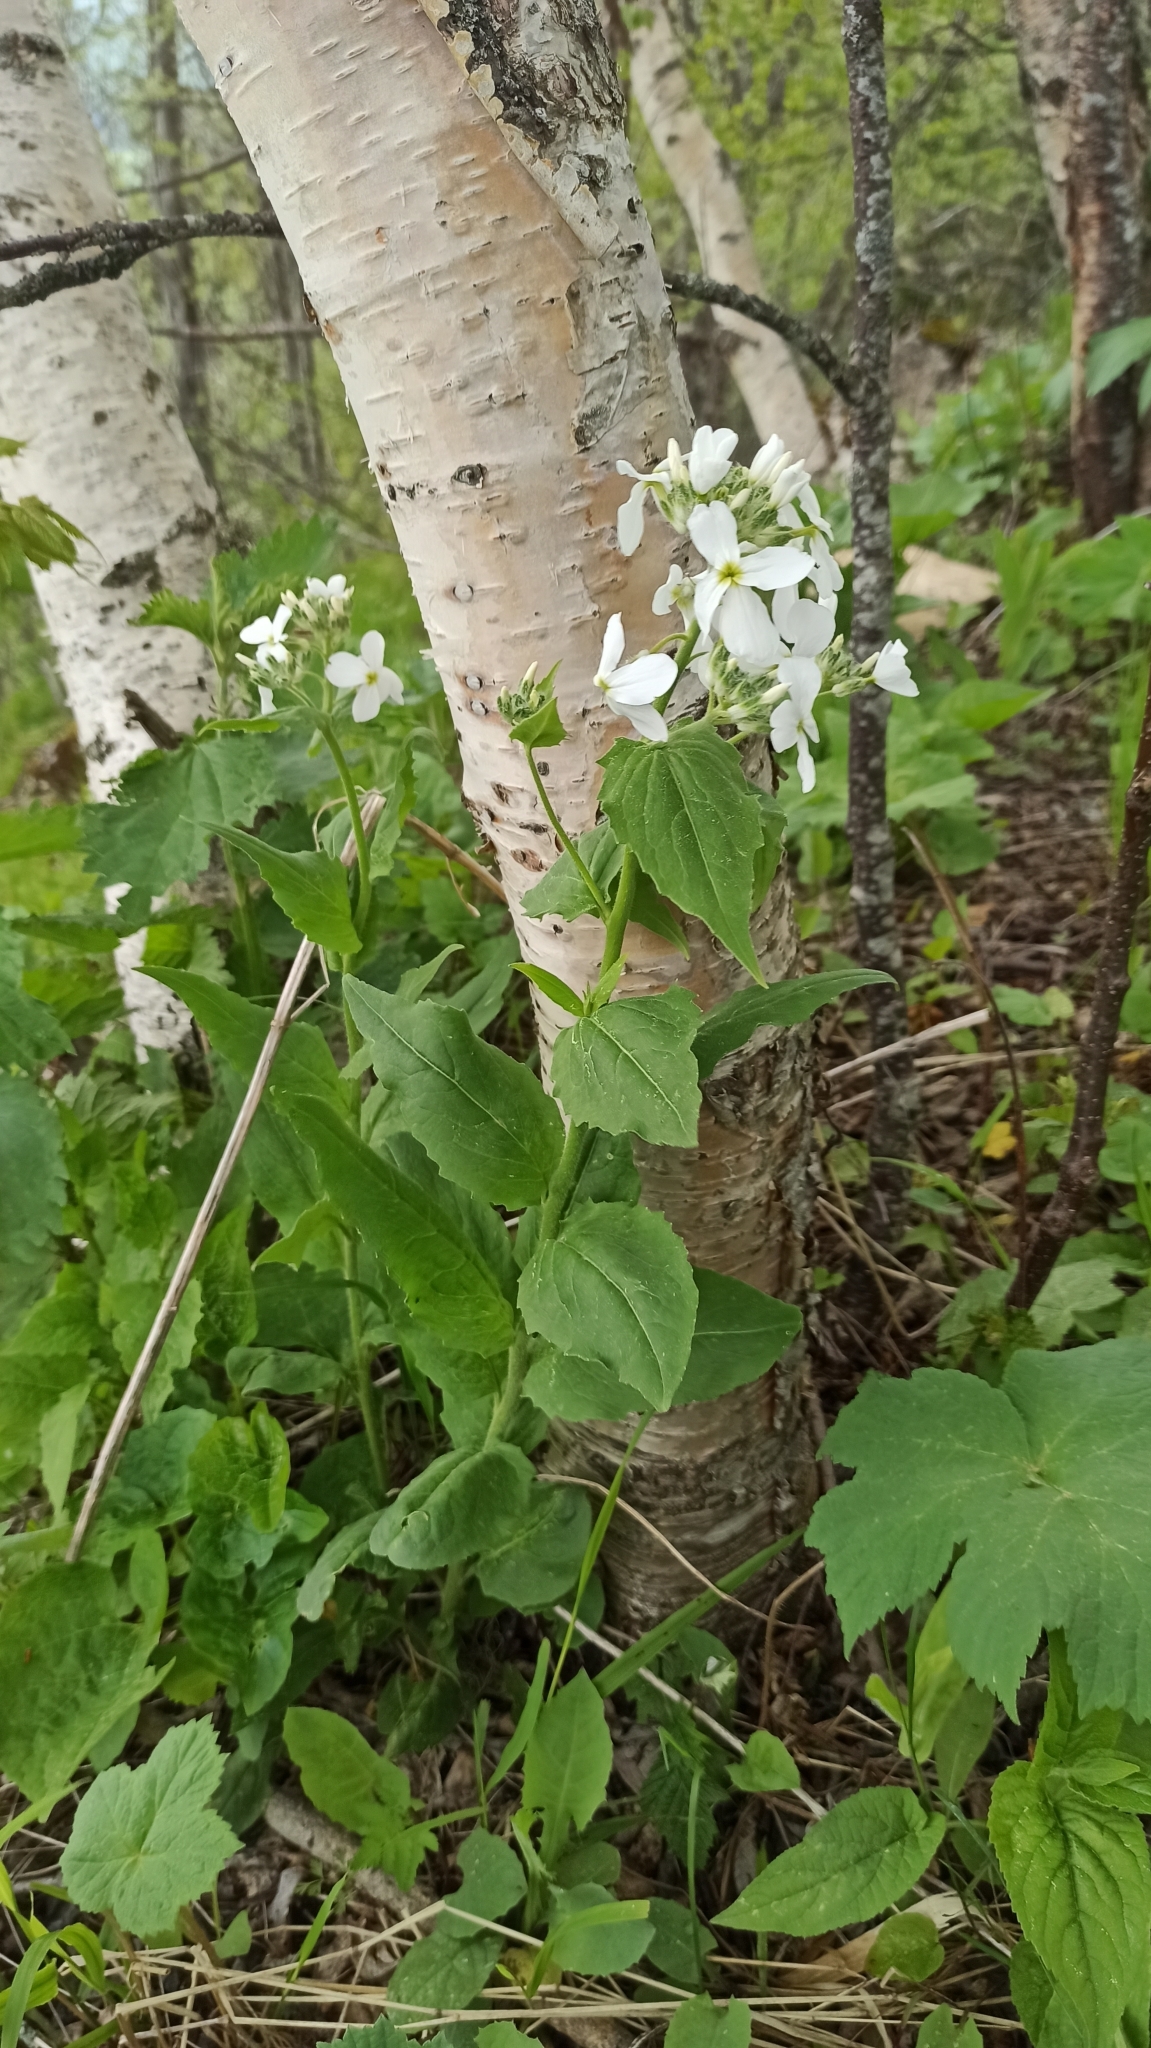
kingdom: Plantae
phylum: Tracheophyta
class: Magnoliopsida
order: Brassicales
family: Brassicaceae
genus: Lunaria
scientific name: Lunaria annua
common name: Honesty
